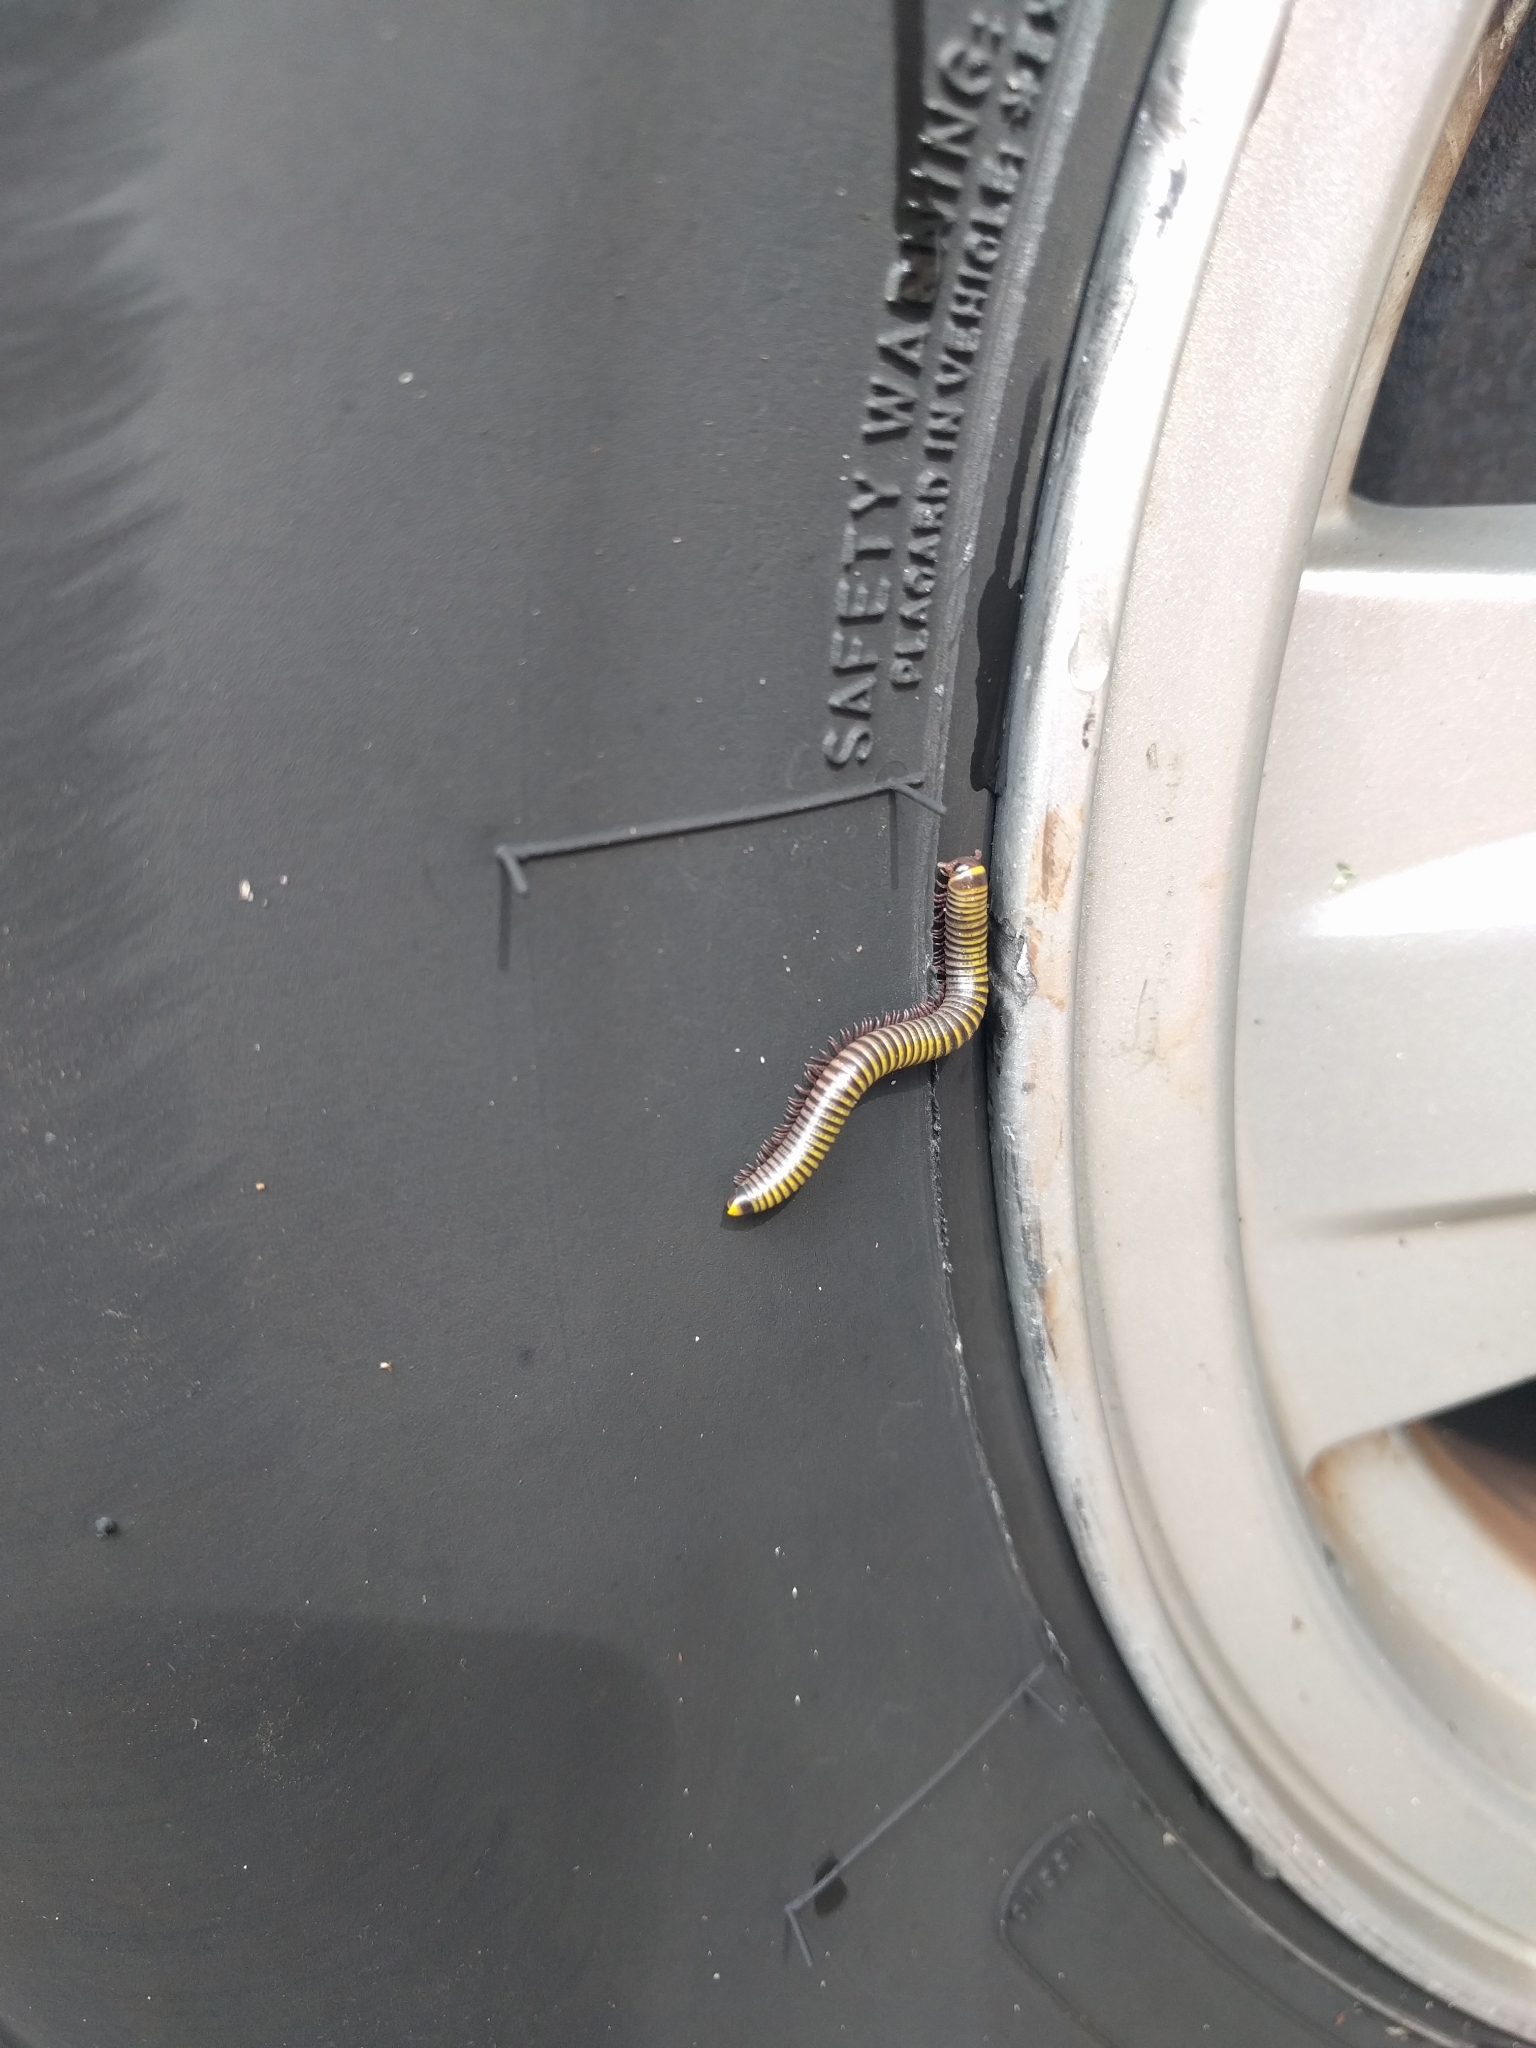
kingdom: Animalia
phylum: Arthropoda
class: Diplopoda
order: Spirobolida
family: Rhinocricidae
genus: Anadenobolus
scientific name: Anadenobolus monilicornis
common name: Caribbean millipede
